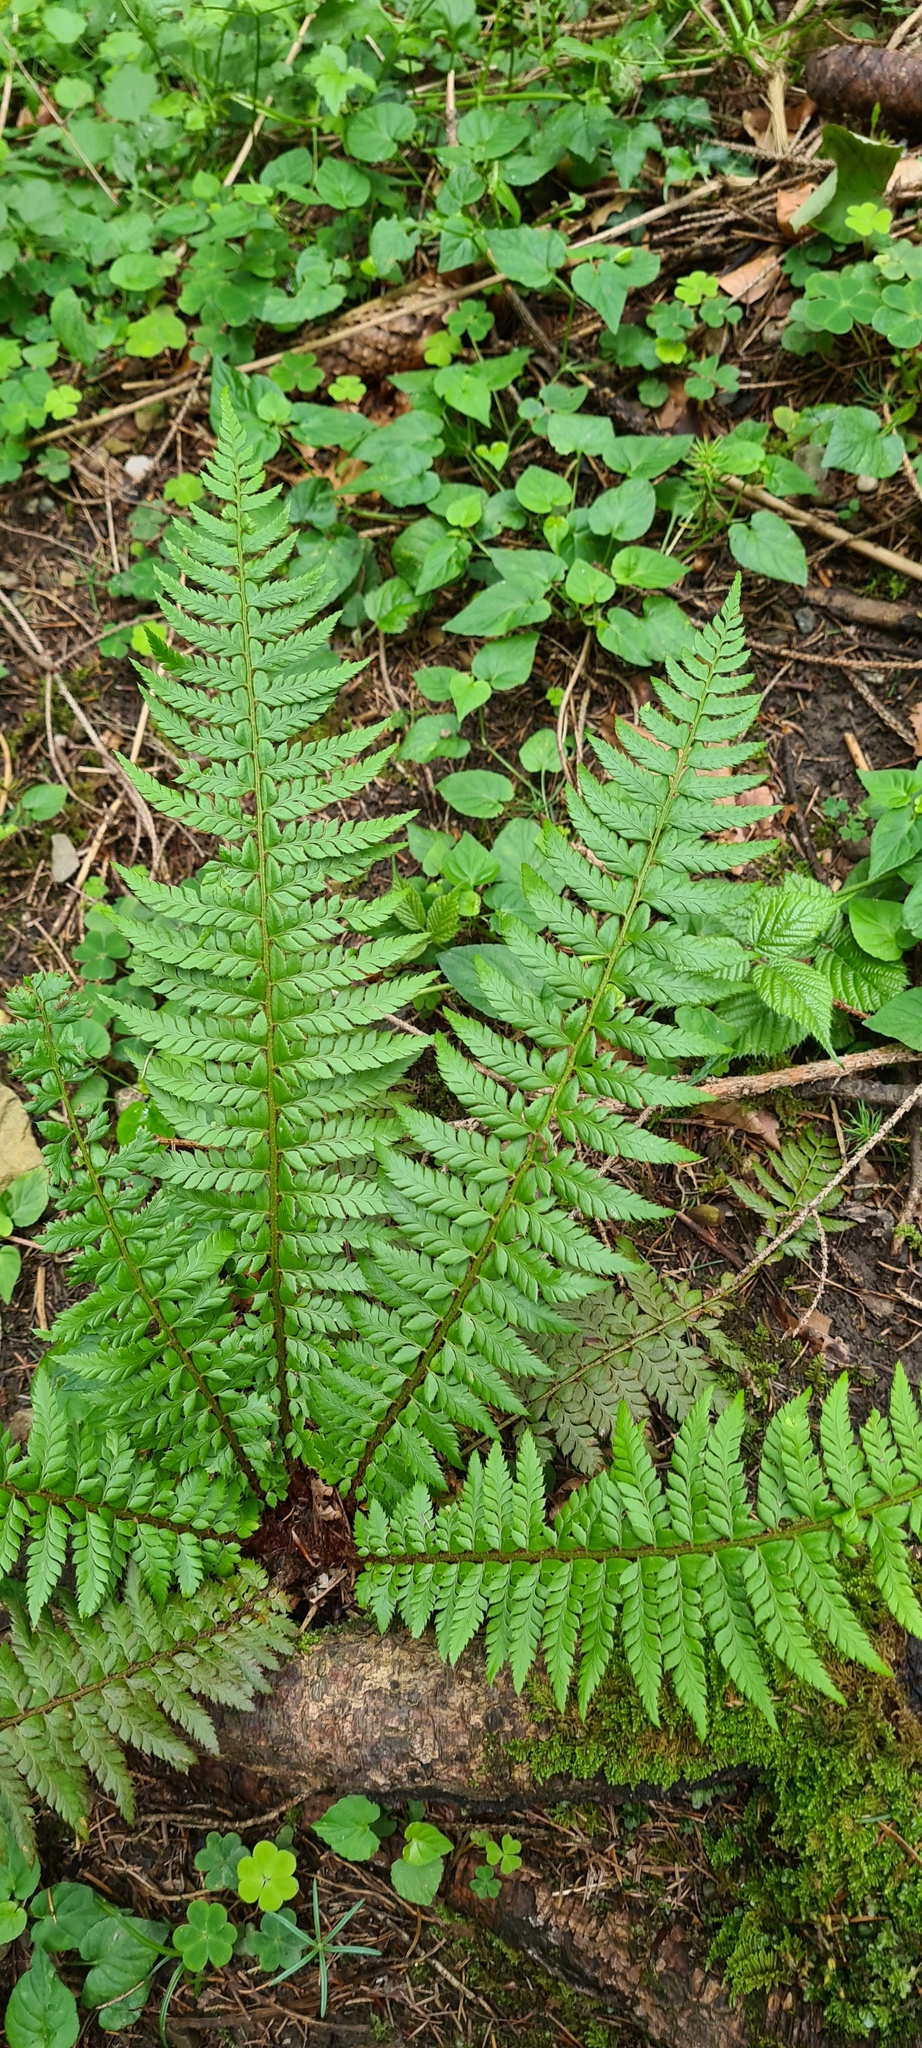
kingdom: Plantae
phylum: Tracheophyta
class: Polypodiopsida
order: Polypodiales
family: Dryopteridaceae
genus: Polystichum
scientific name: Polystichum aculeatum
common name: Hard shield-fern
